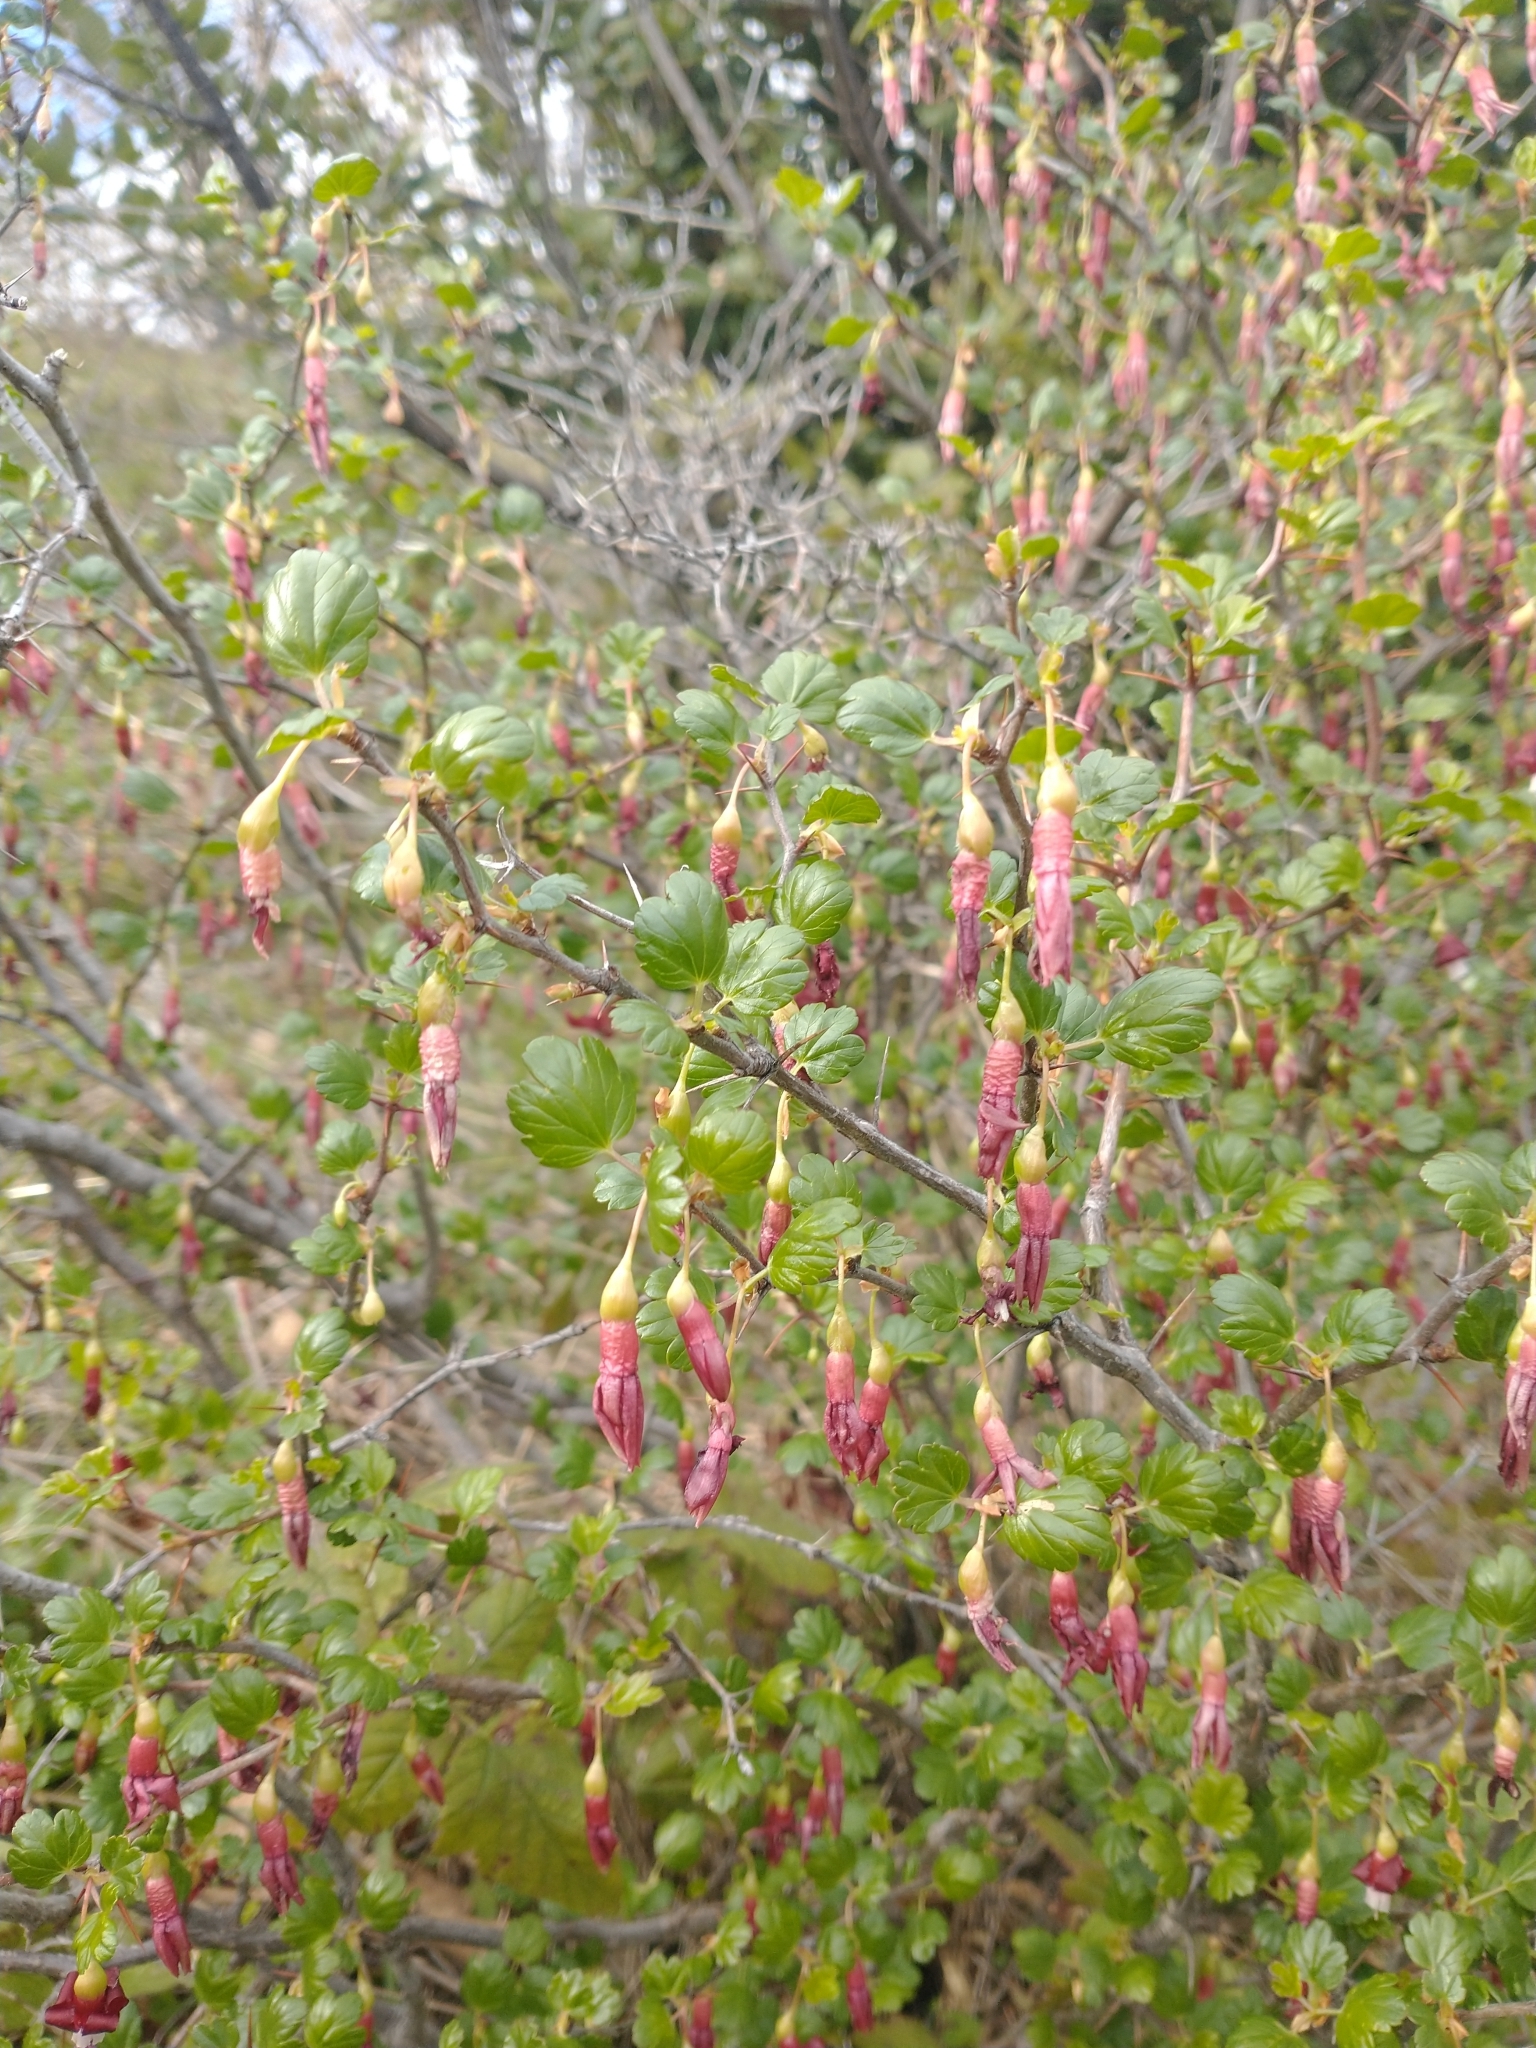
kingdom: Plantae
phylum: Tracheophyta
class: Magnoliopsida
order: Saxifragales
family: Grossulariaceae
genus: Ribes
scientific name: Ribes cruentum
